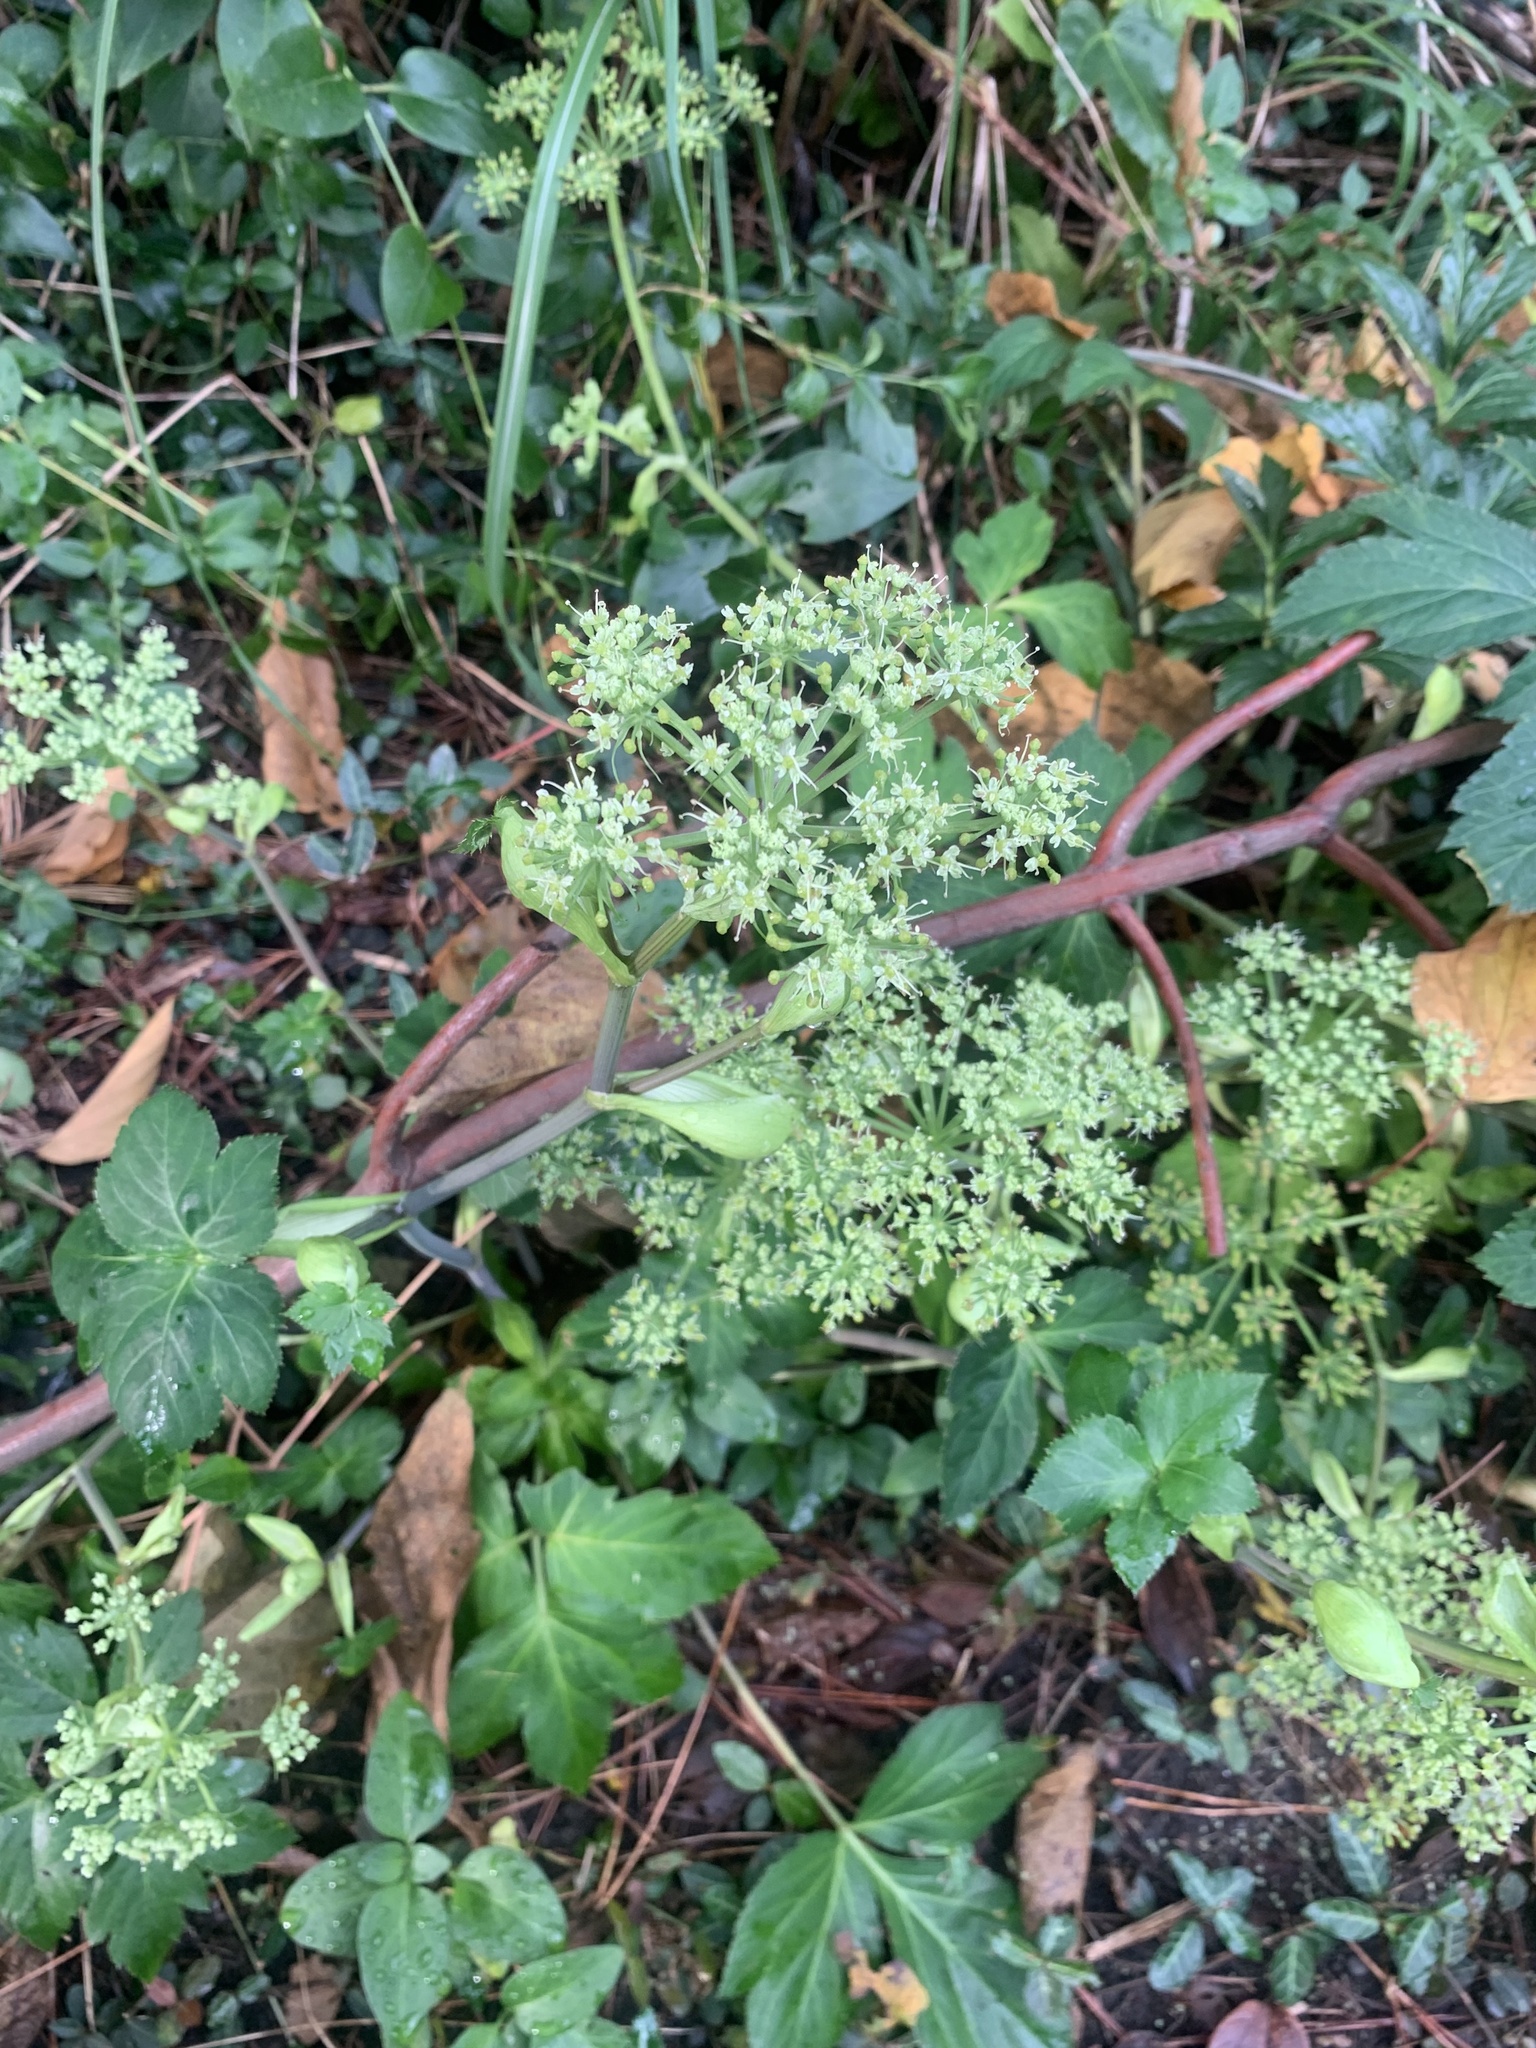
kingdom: Plantae
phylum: Tracheophyta
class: Magnoliopsida
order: Apiales
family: Apiaceae
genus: Angelica
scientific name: Angelica keiskei
